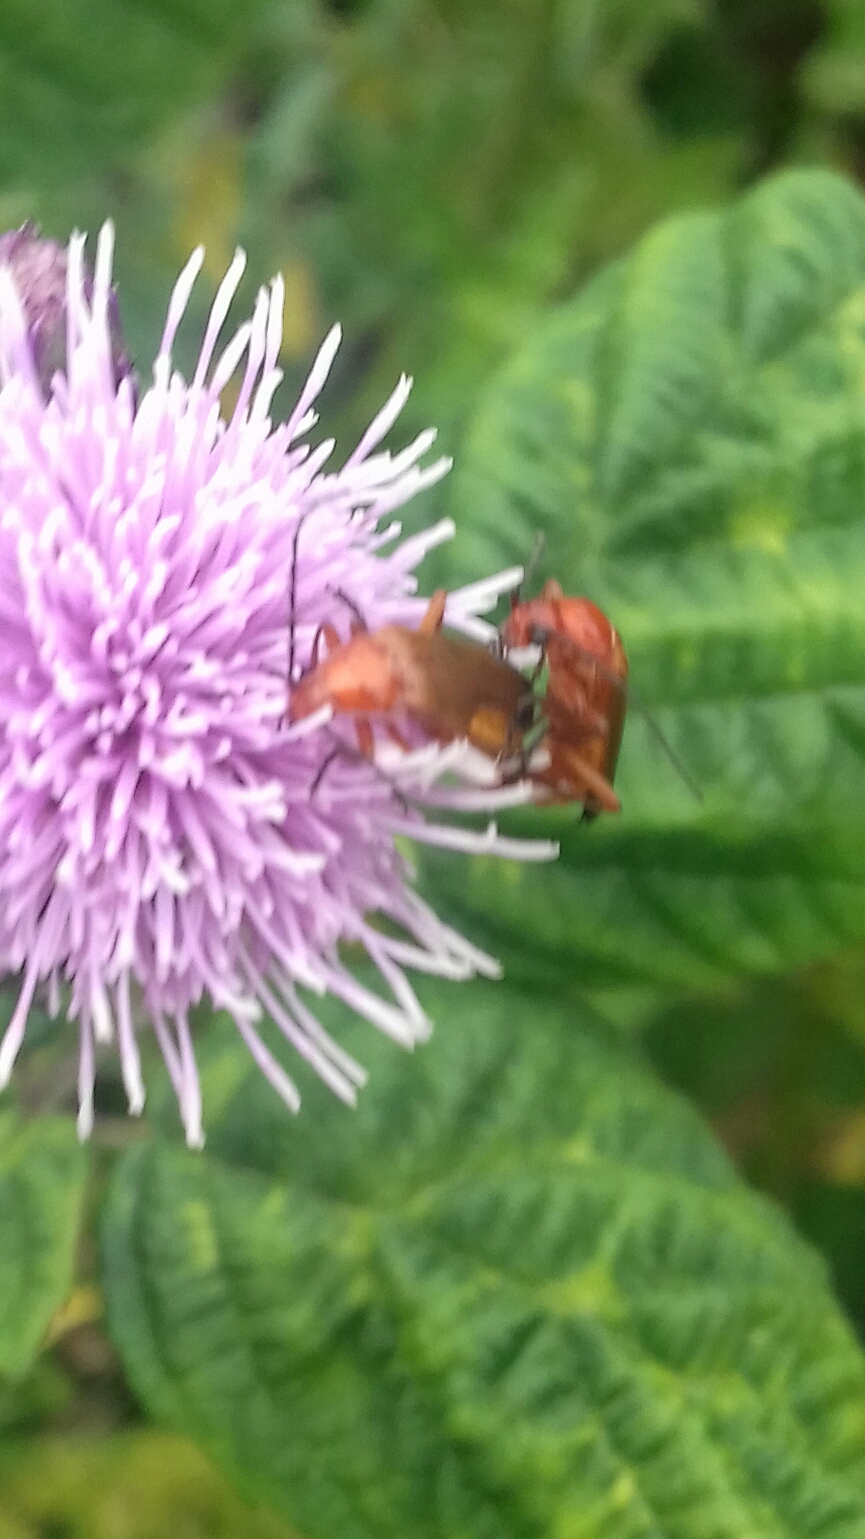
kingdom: Animalia
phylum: Arthropoda
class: Insecta
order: Coleoptera
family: Cantharidae
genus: Rhagonycha
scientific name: Rhagonycha fulva
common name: Common red soldier beetle
